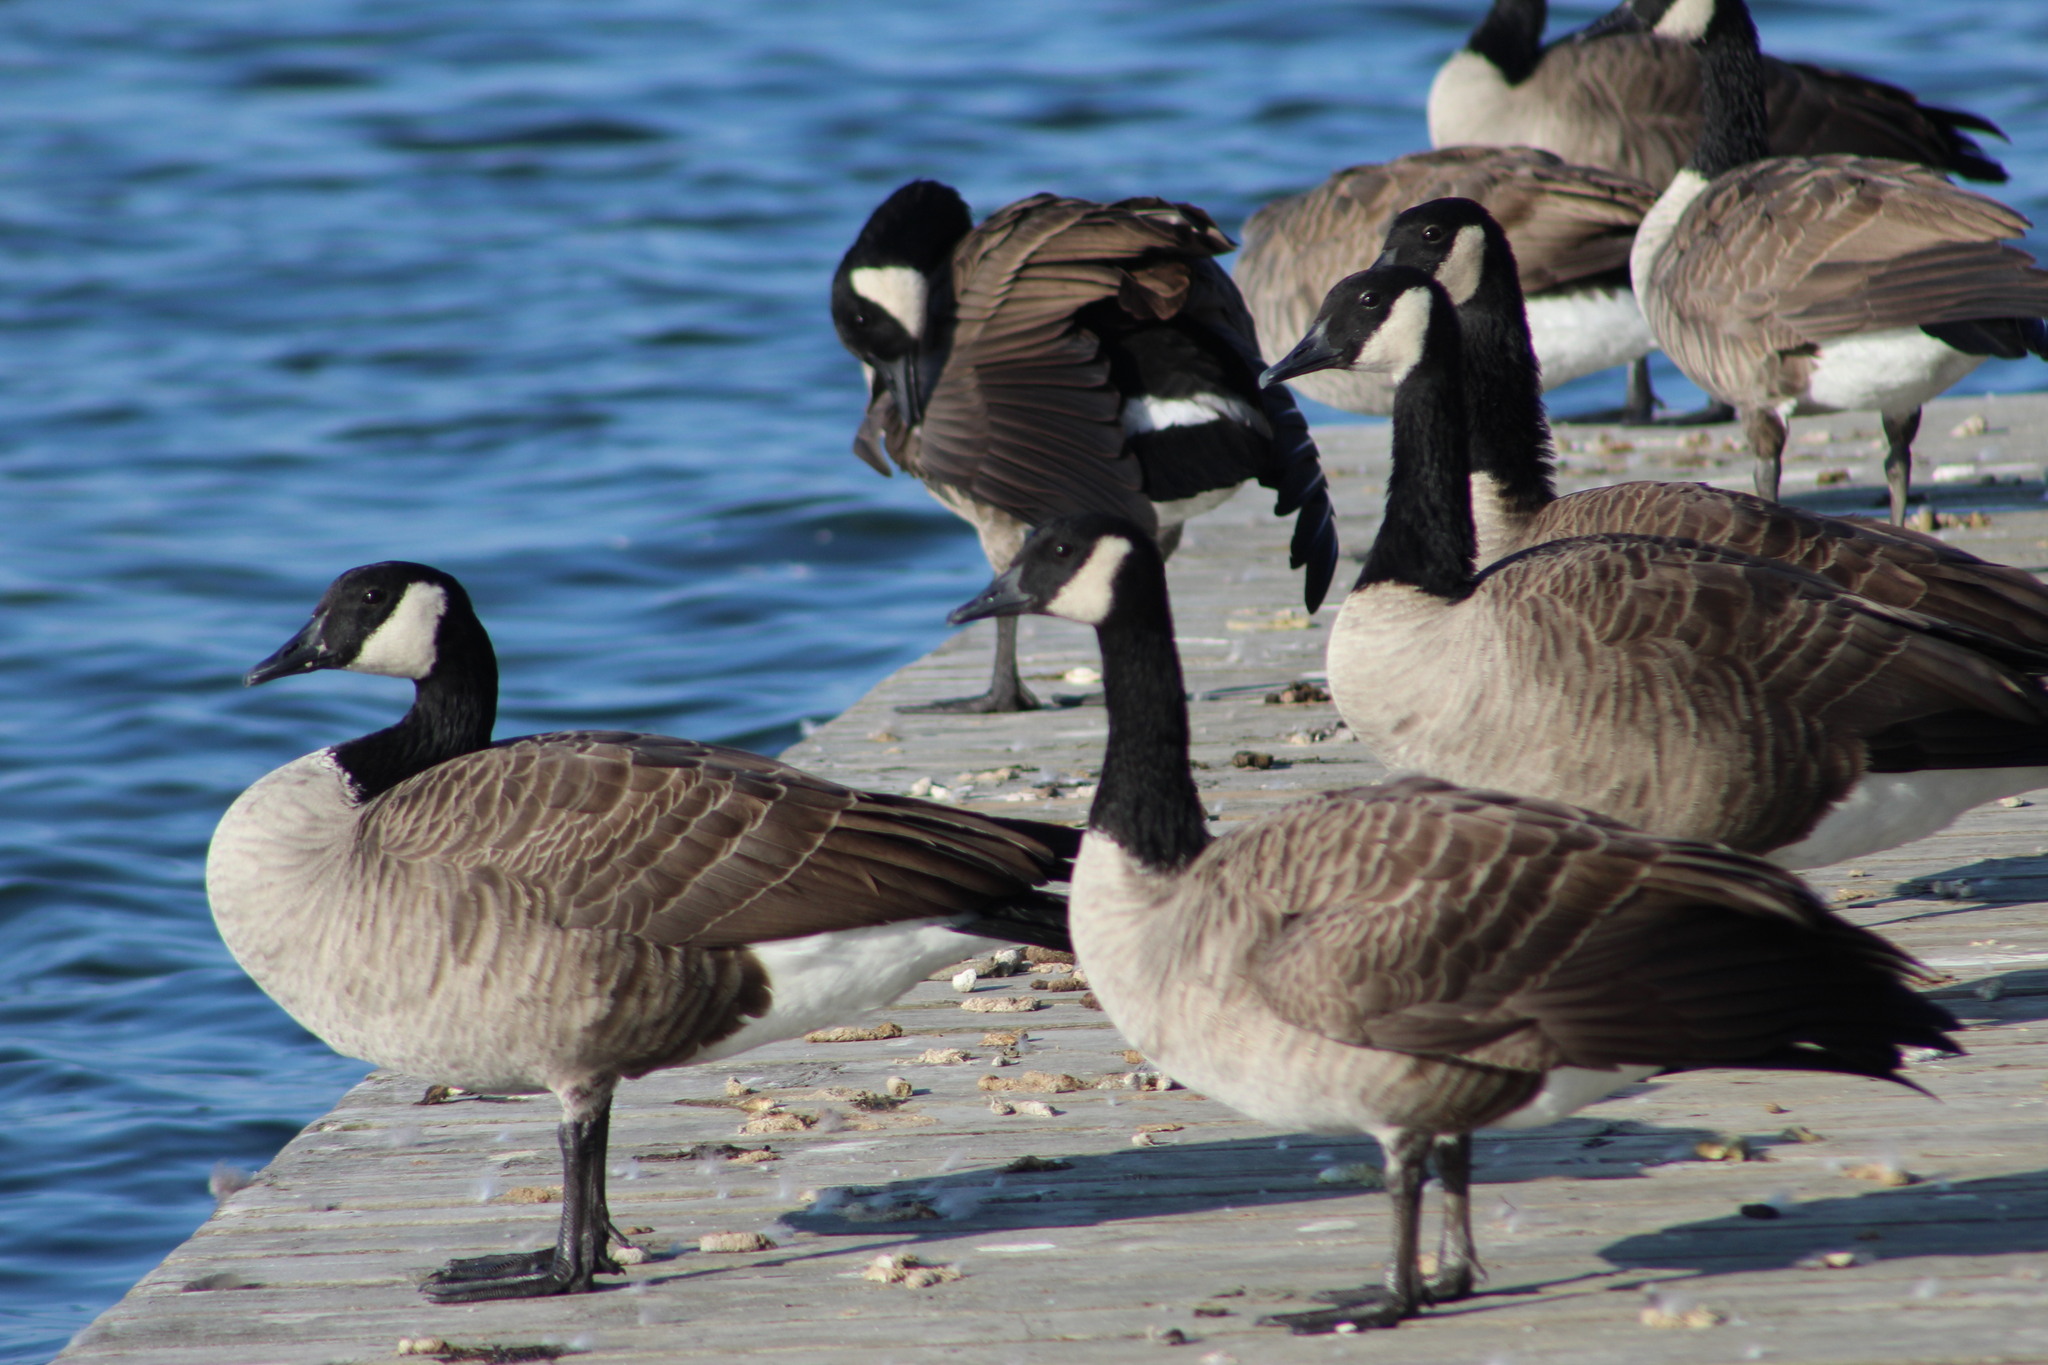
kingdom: Animalia
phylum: Chordata
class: Aves
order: Anseriformes
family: Anatidae
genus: Branta
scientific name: Branta canadensis
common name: Canada goose
